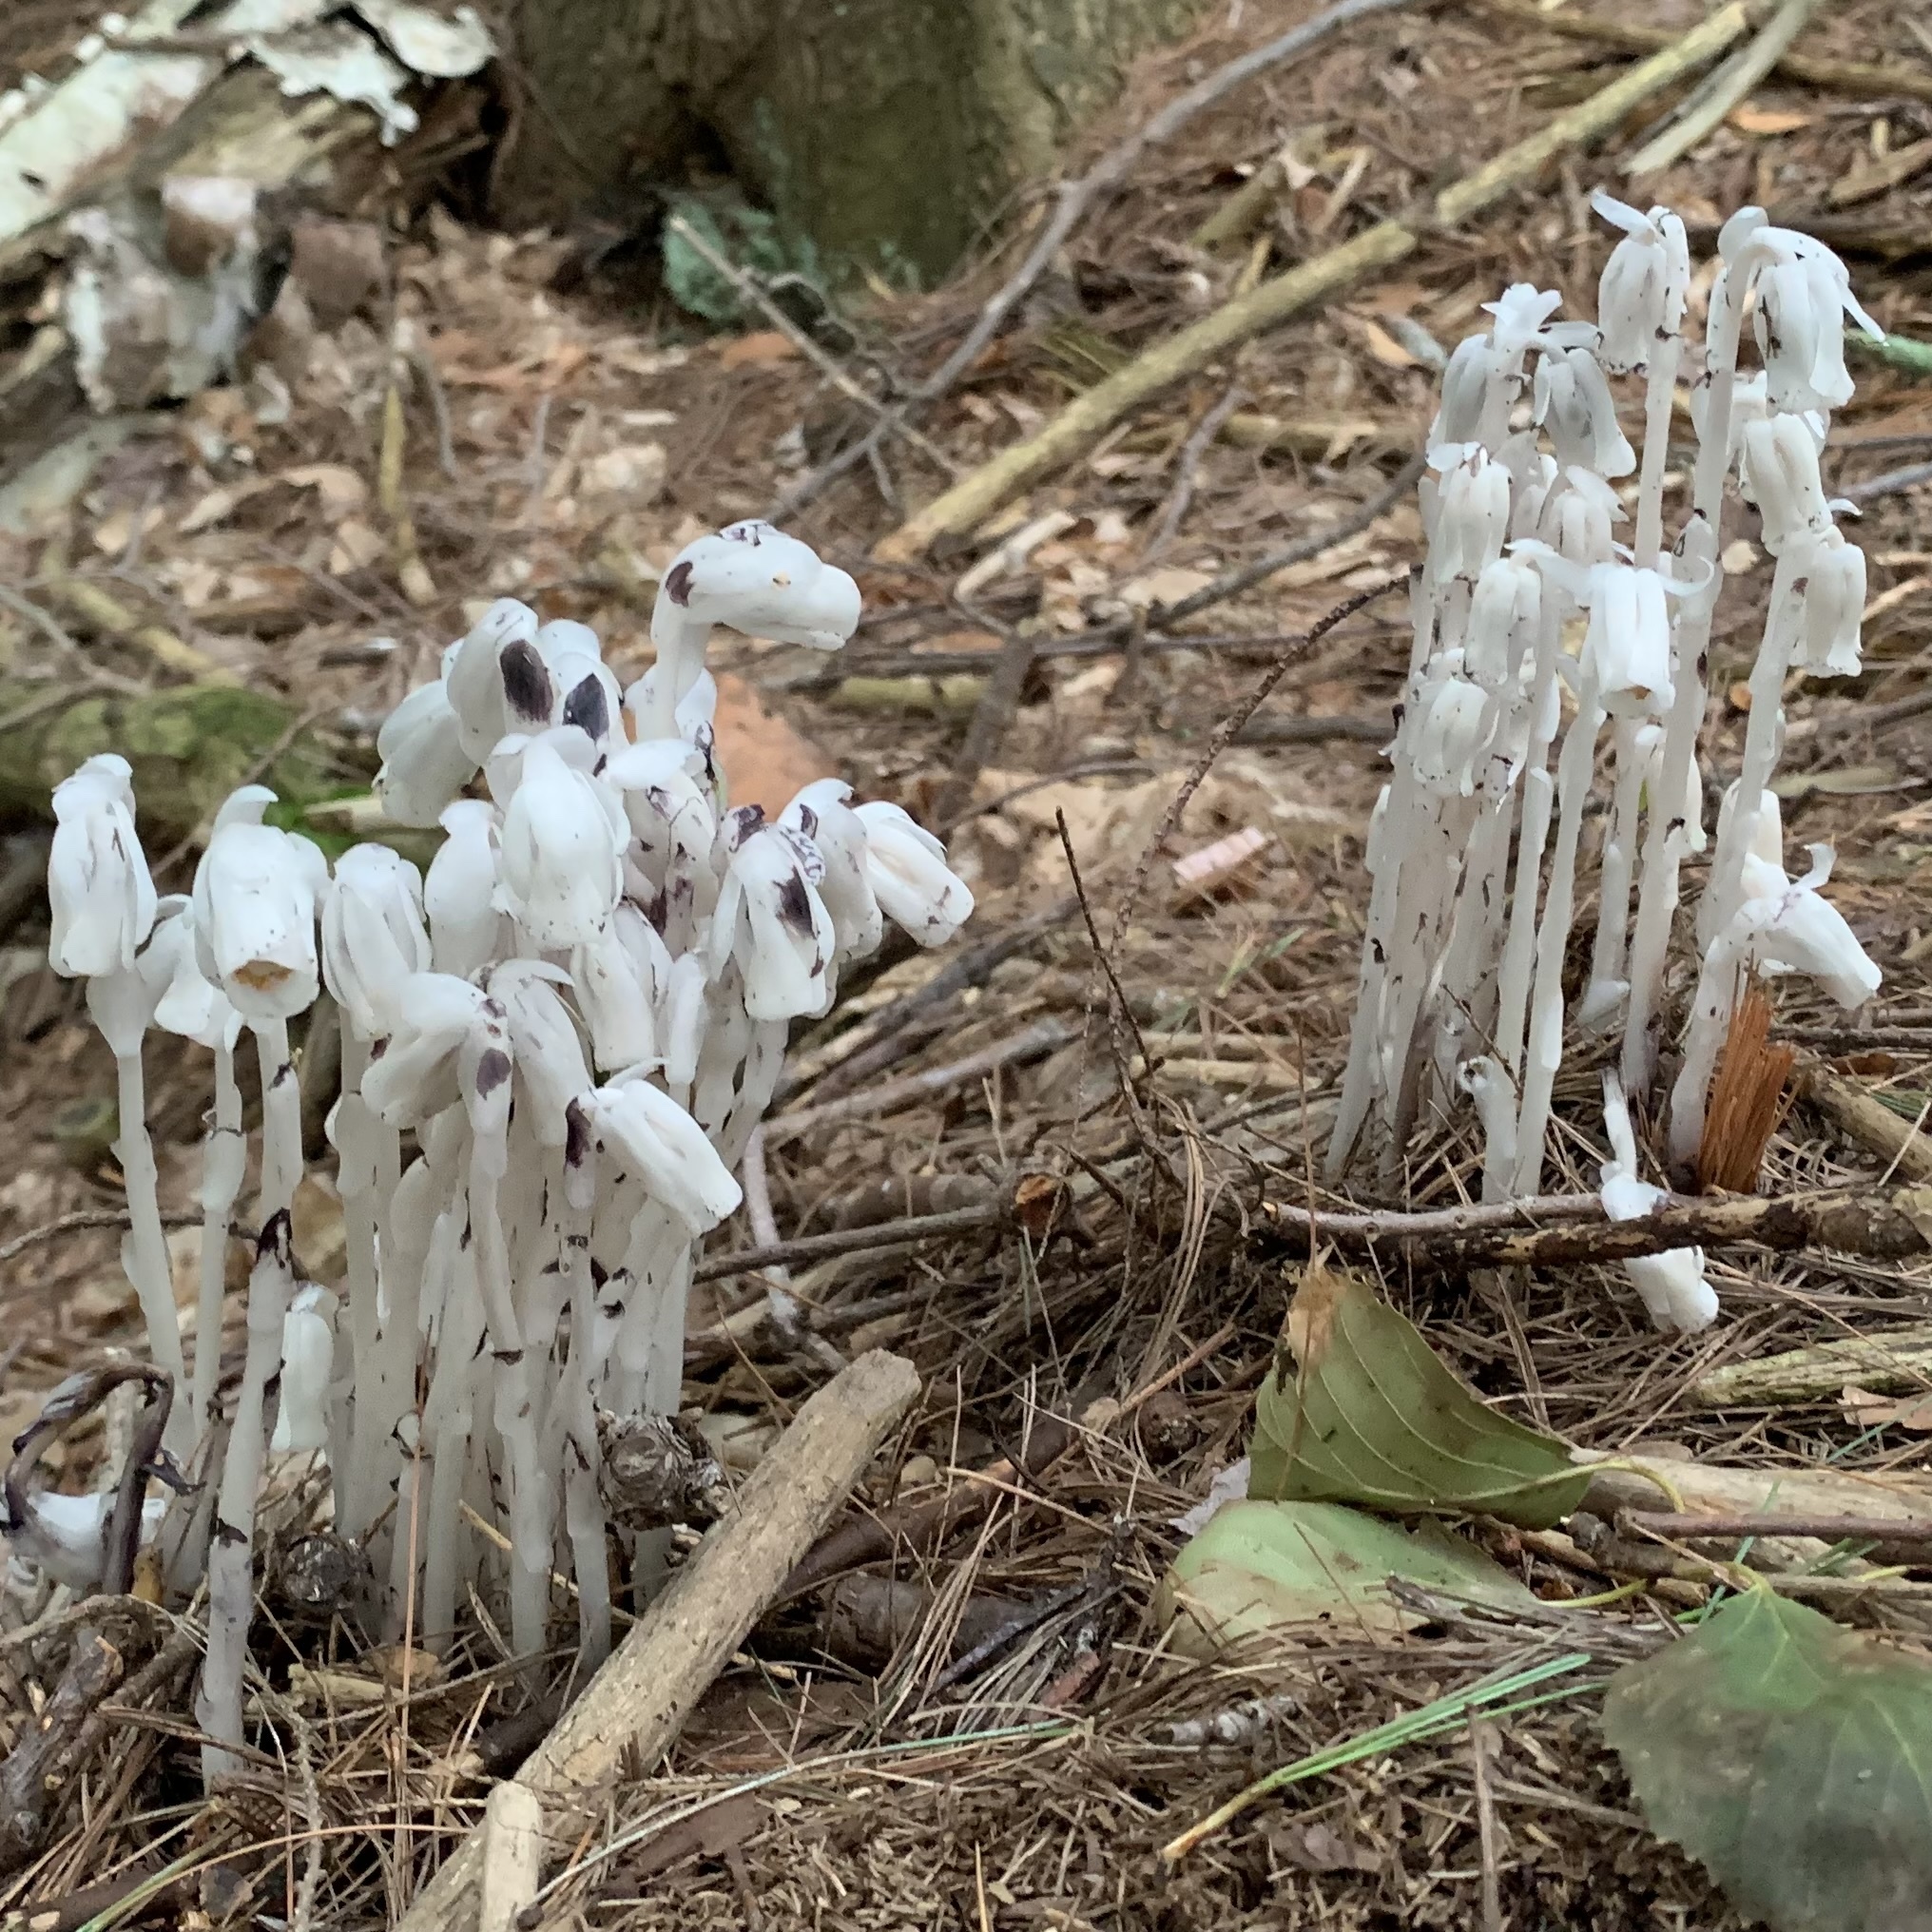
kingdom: Plantae
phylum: Tracheophyta
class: Magnoliopsida
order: Ericales
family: Ericaceae
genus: Monotropa
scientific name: Monotropa uniflora
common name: Convulsion root
